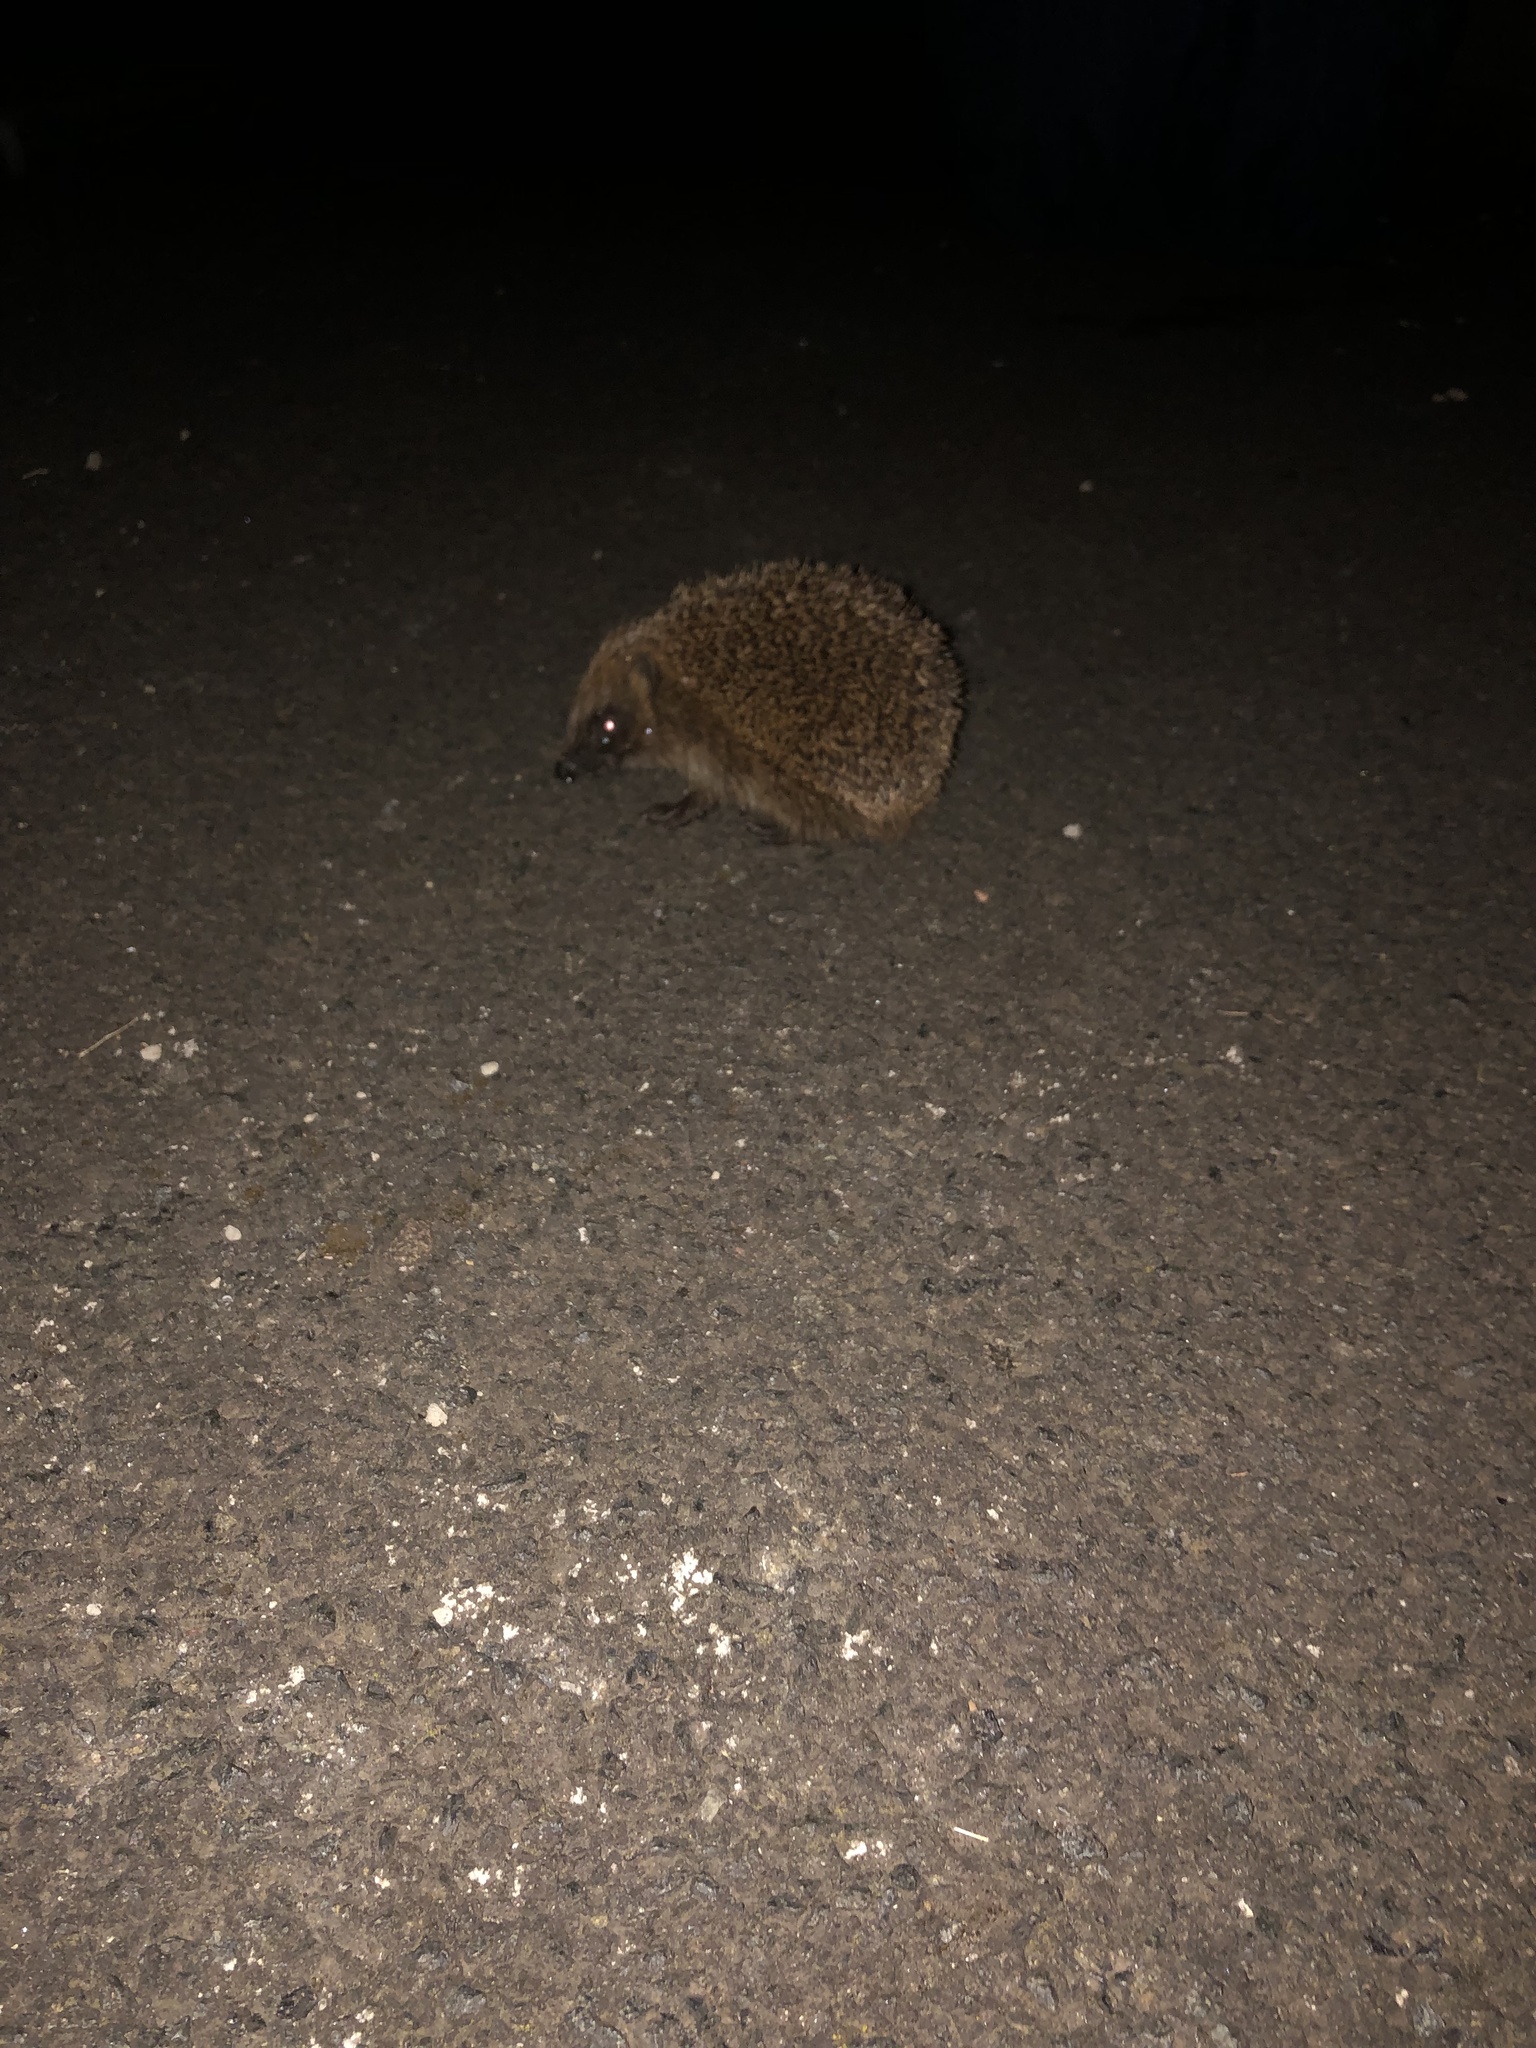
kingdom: Animalia
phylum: Chordata
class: Mammalia
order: Erinaceomorpha
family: Erinaceidae
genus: Erinaceus
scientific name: Erinaceus europaeus
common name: West european hedgehog
